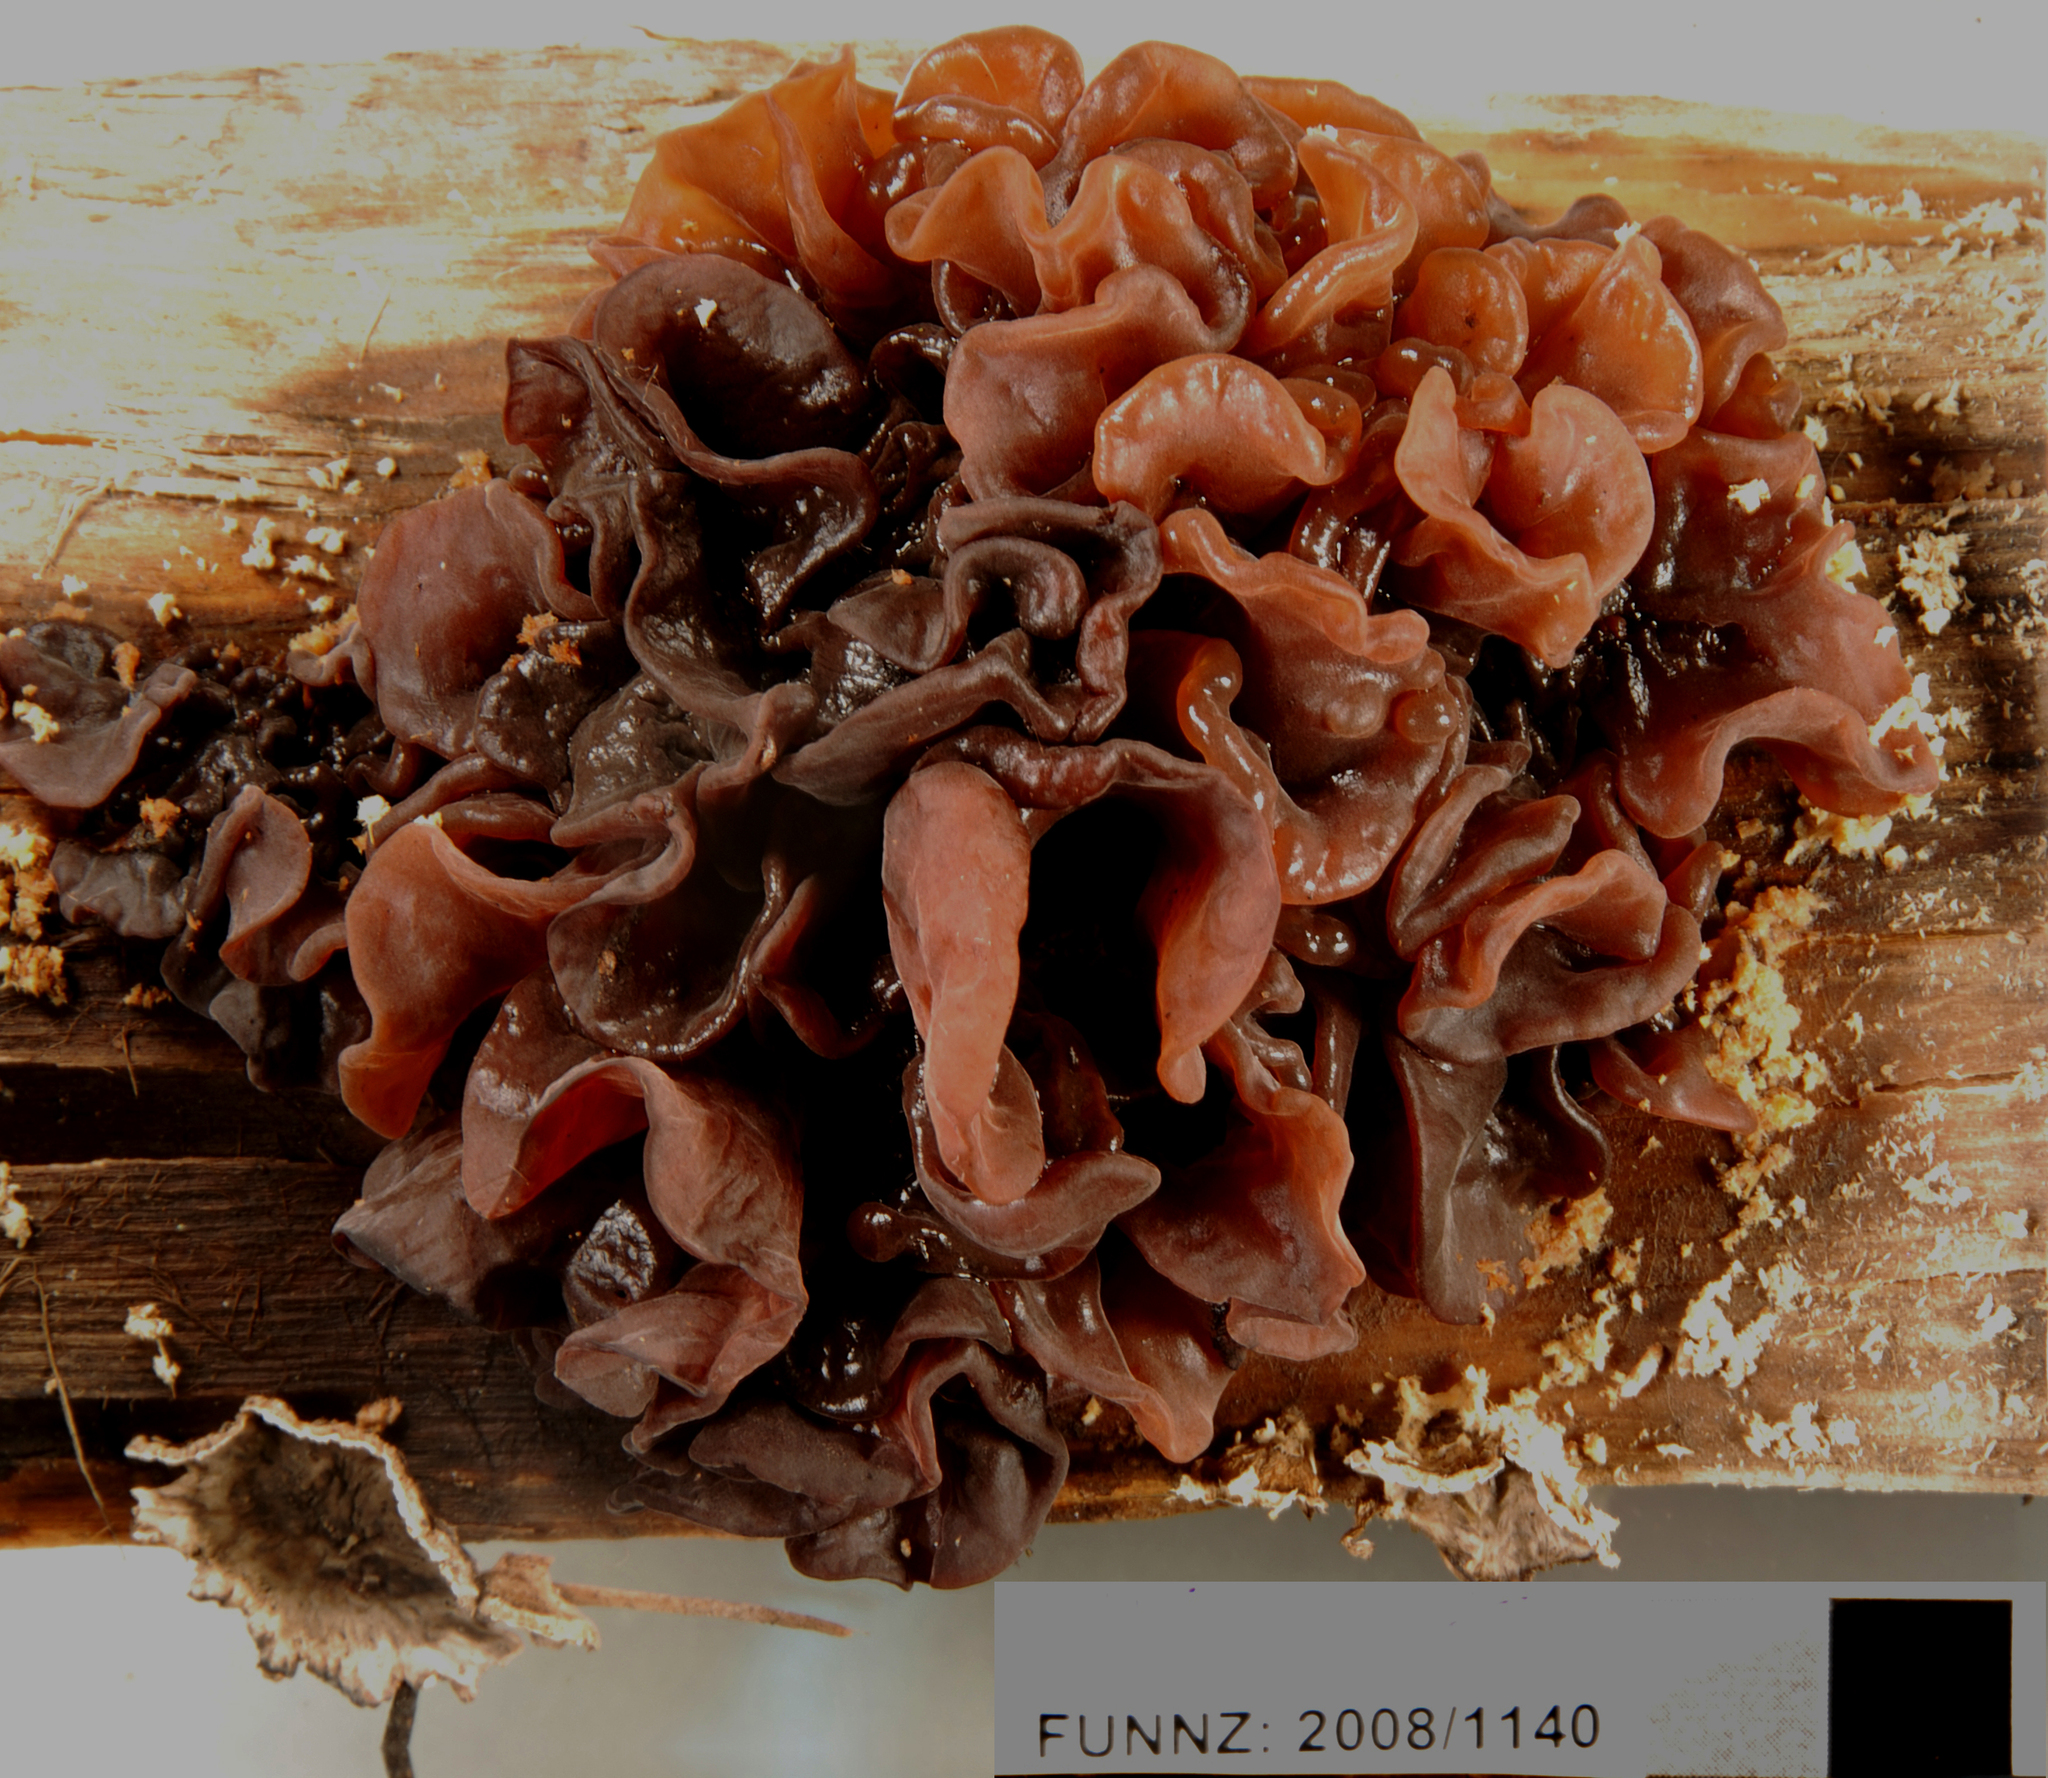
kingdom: Fungi
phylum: Basidiomycota
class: Tremellomycetes
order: Tremellales
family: Tremellaceae
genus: Phaeotremella
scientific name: Phaeotremella foliacea
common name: Leafy brain
